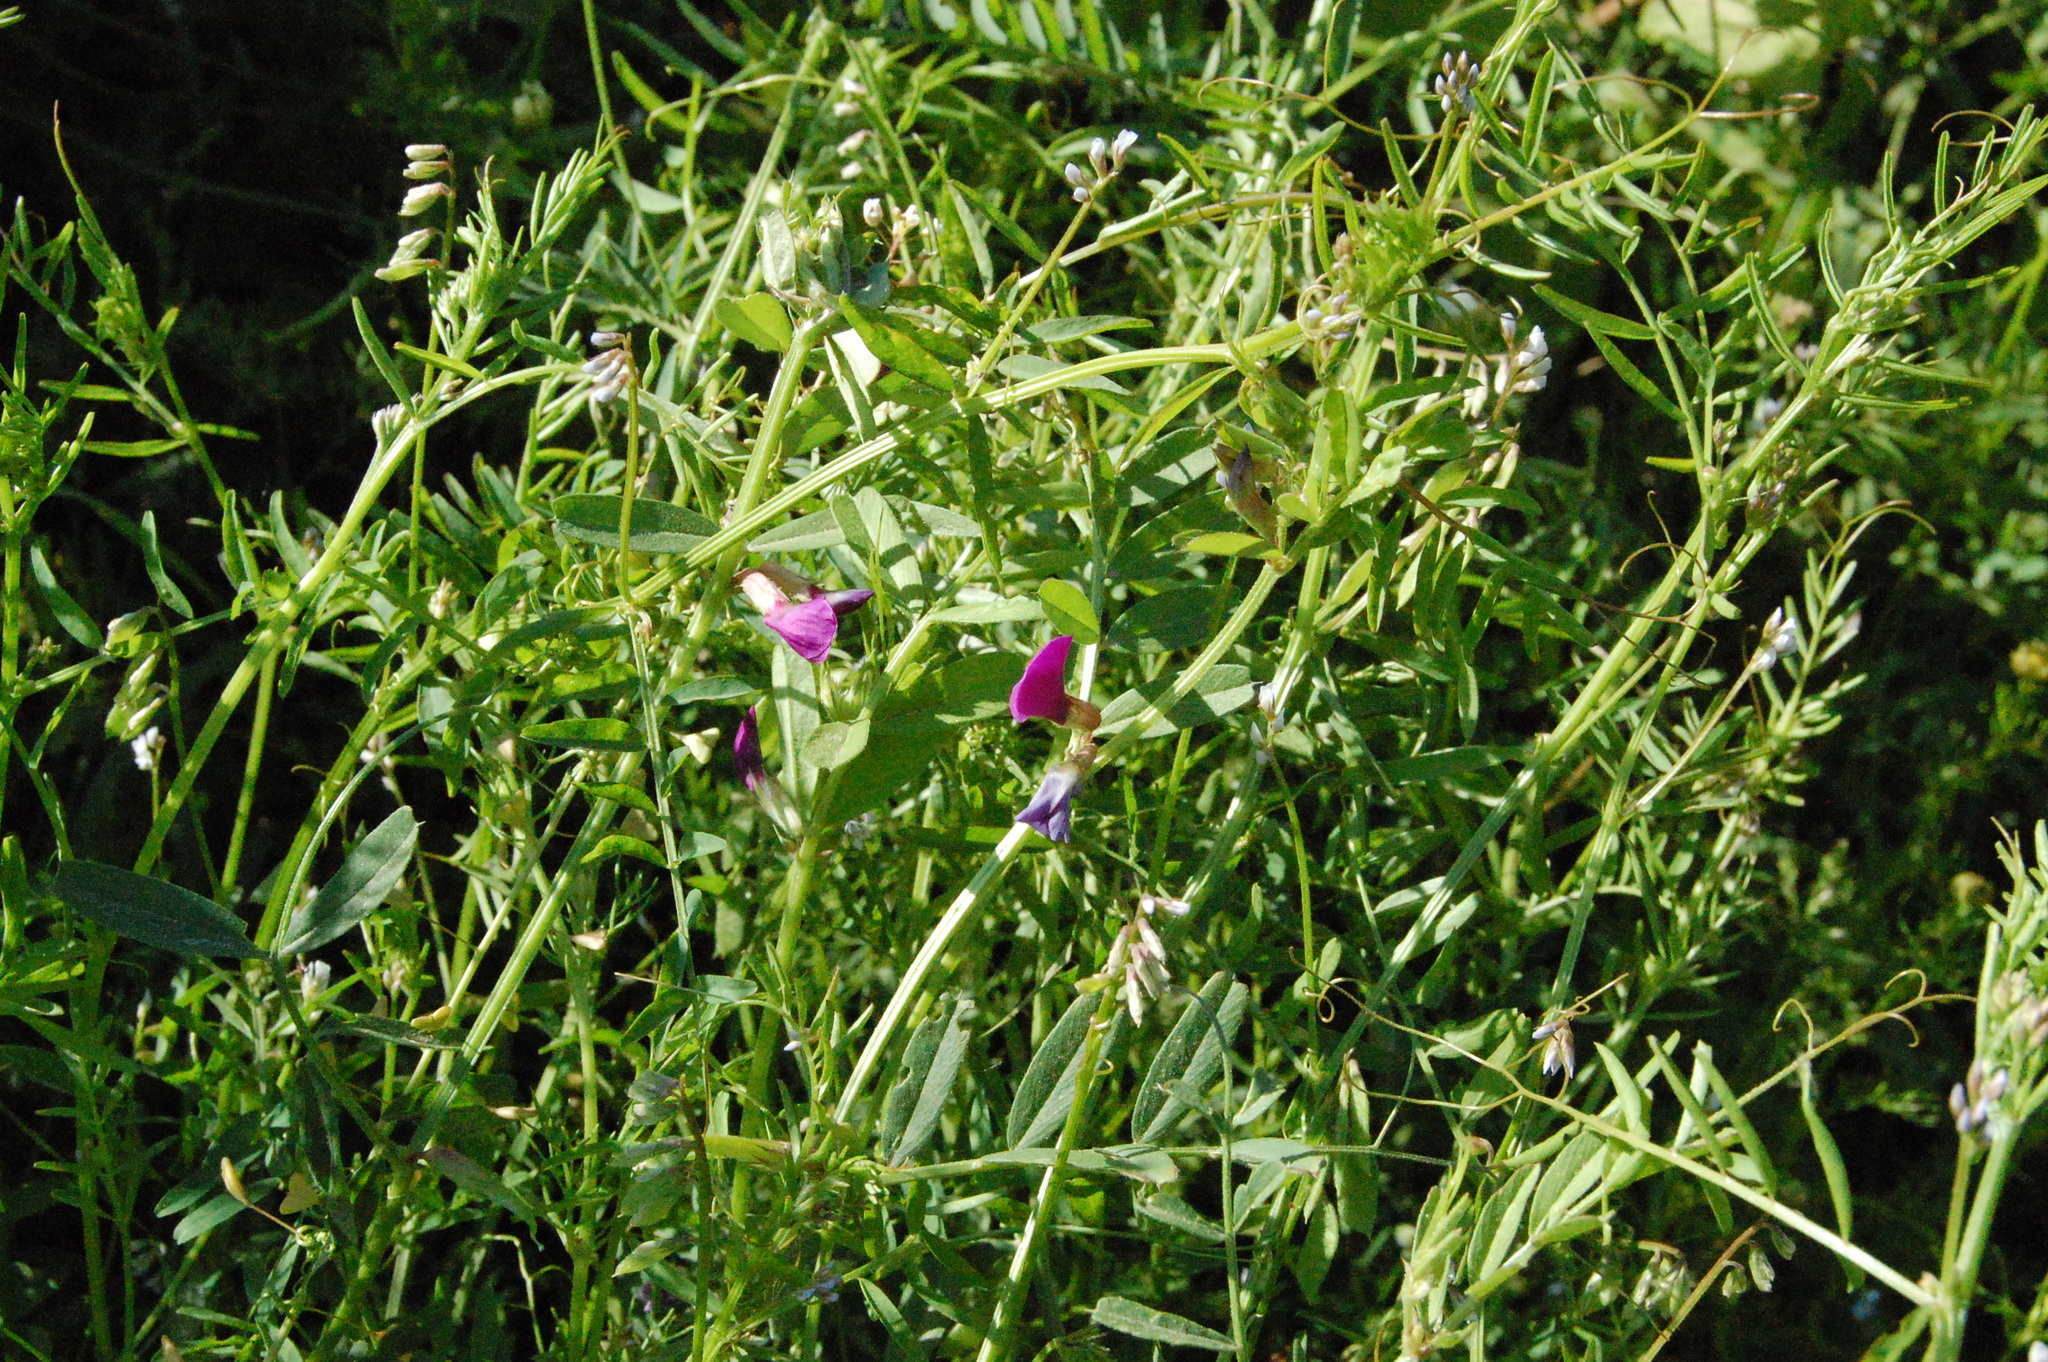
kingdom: Plantae
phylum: Tracheophyta
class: Magnoliopsida
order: Fabales
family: Fabaceae
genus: Vicia
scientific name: Vicia sativa
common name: Garden vetch
